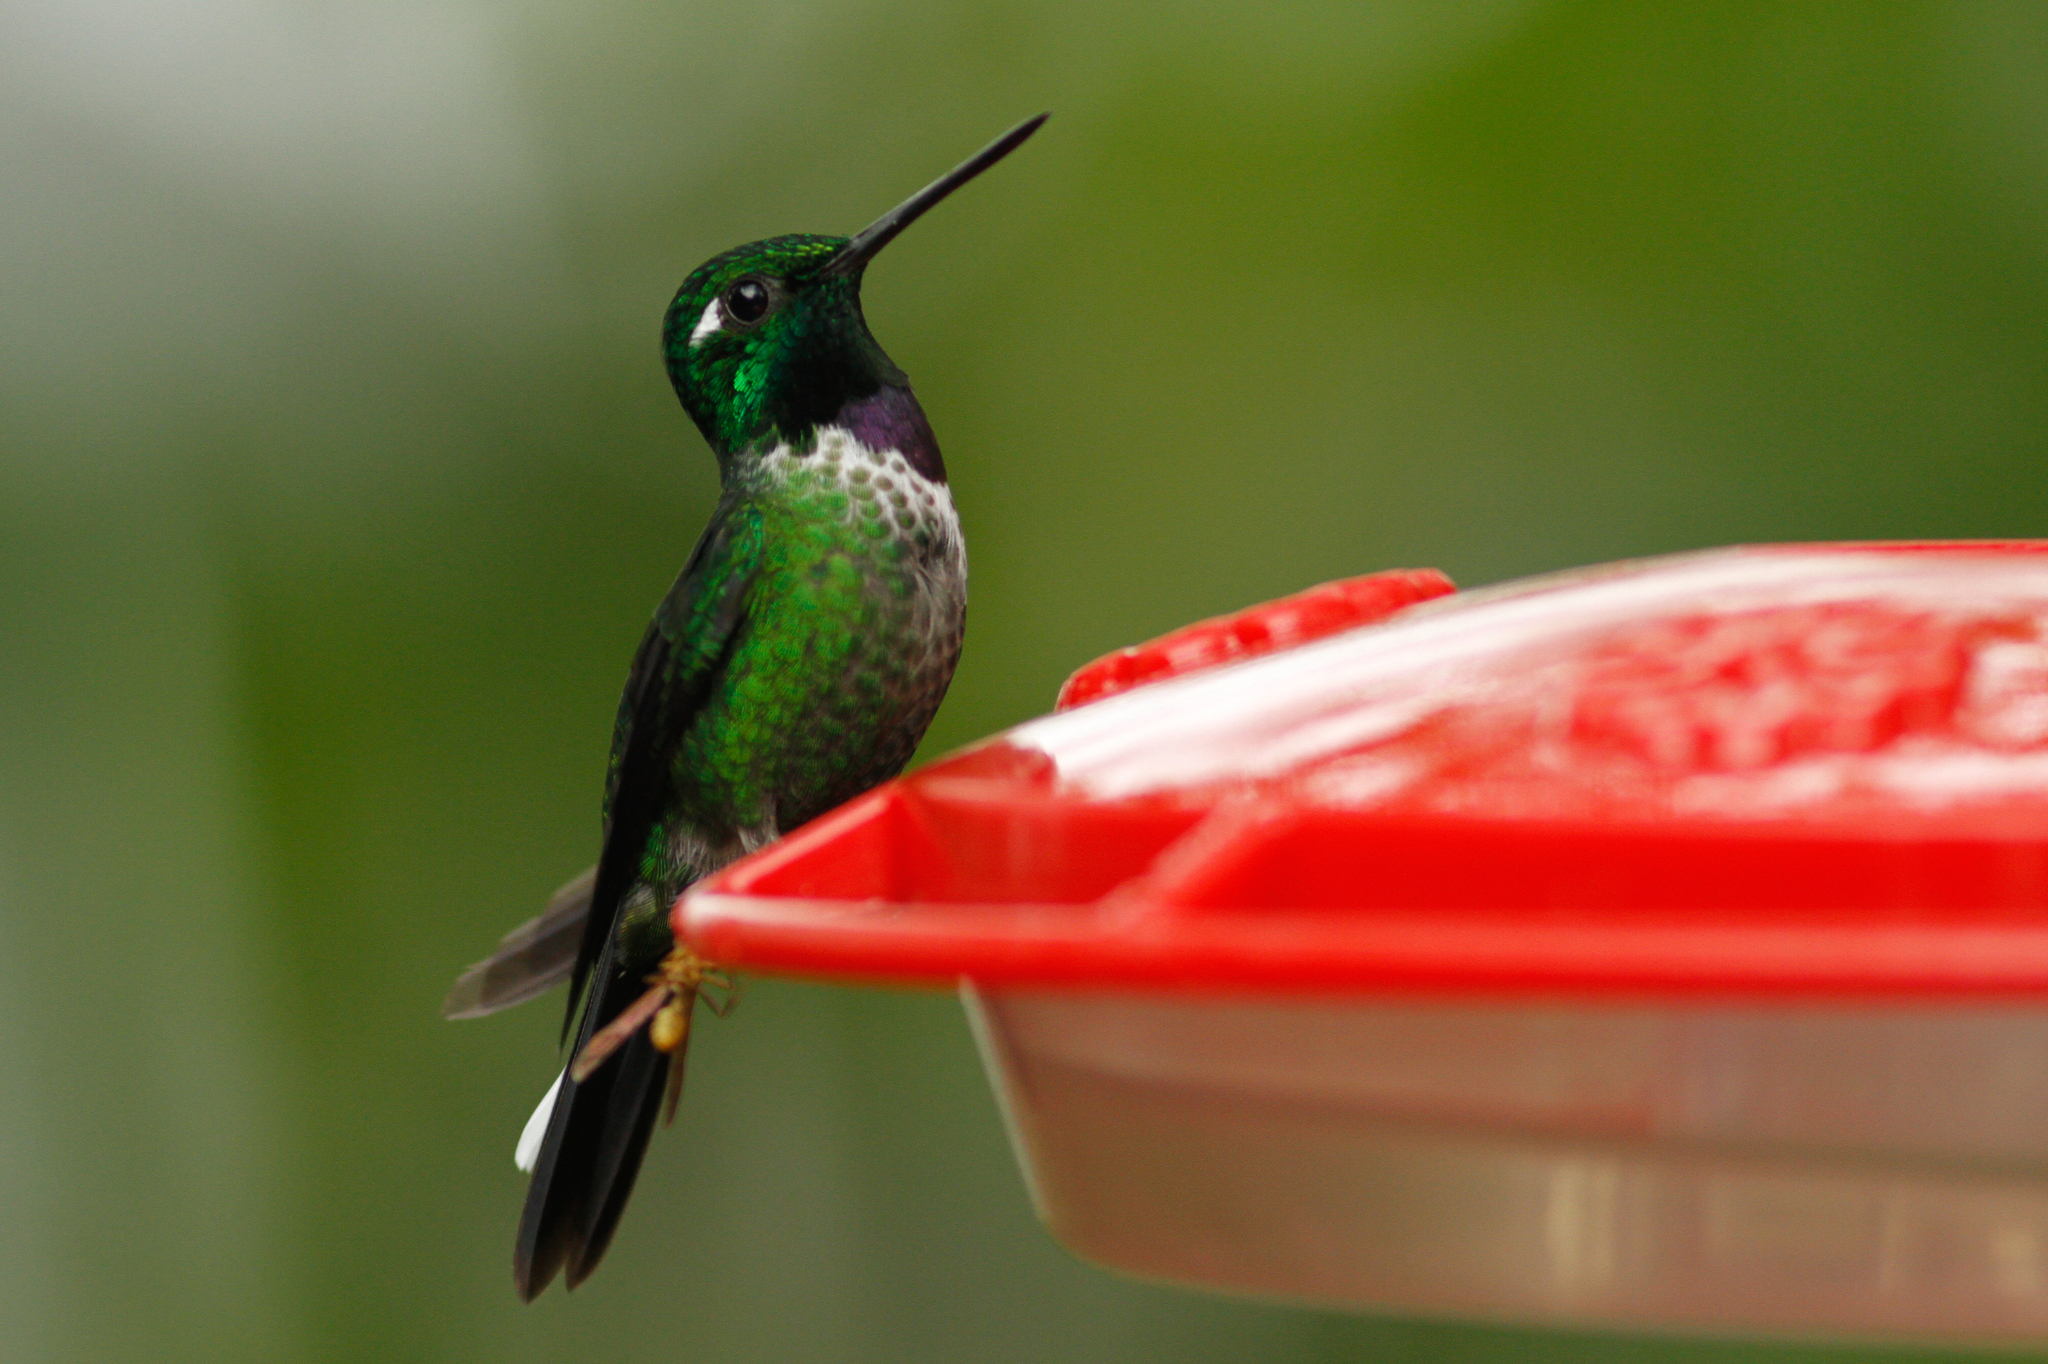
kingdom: Animalia
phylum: Chordata
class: Aves
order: Apodiformes
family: Trochilidae
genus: Urosticte
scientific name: Urosticte benjamini
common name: Purple-bibbed whitetip
